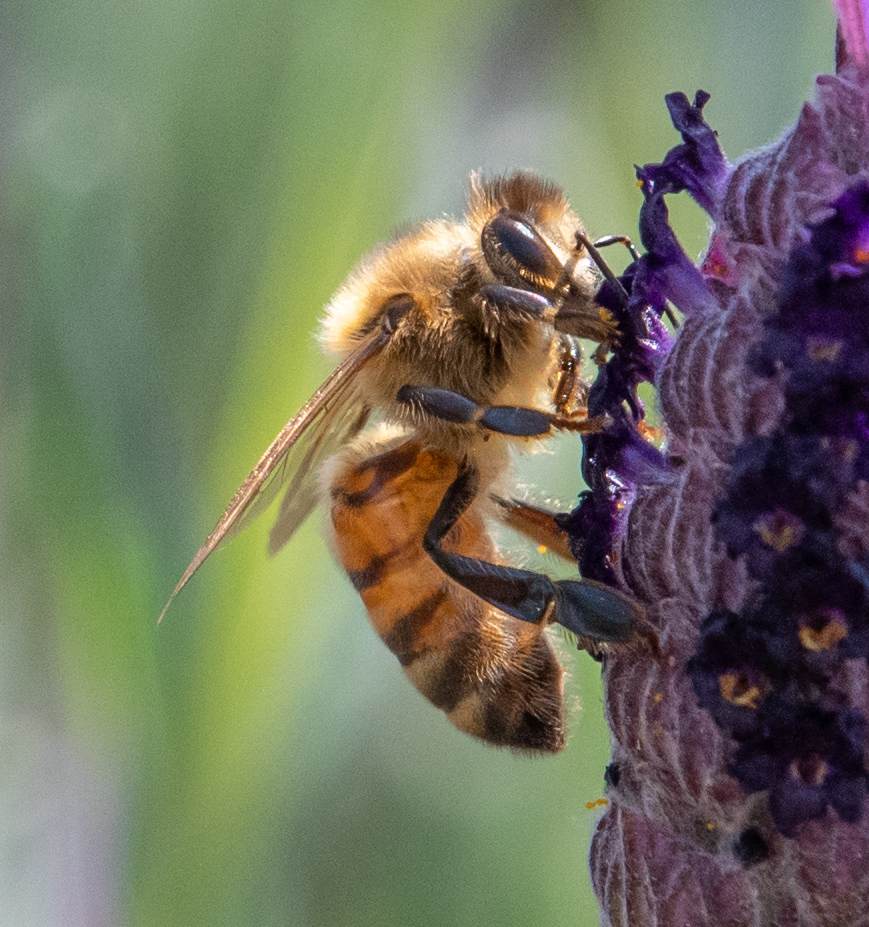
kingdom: Animalia
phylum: Arthropoda
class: Insecta
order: Hymenoptera
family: Apidae
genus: Apis
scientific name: Apis mellifera
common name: Honey bee
